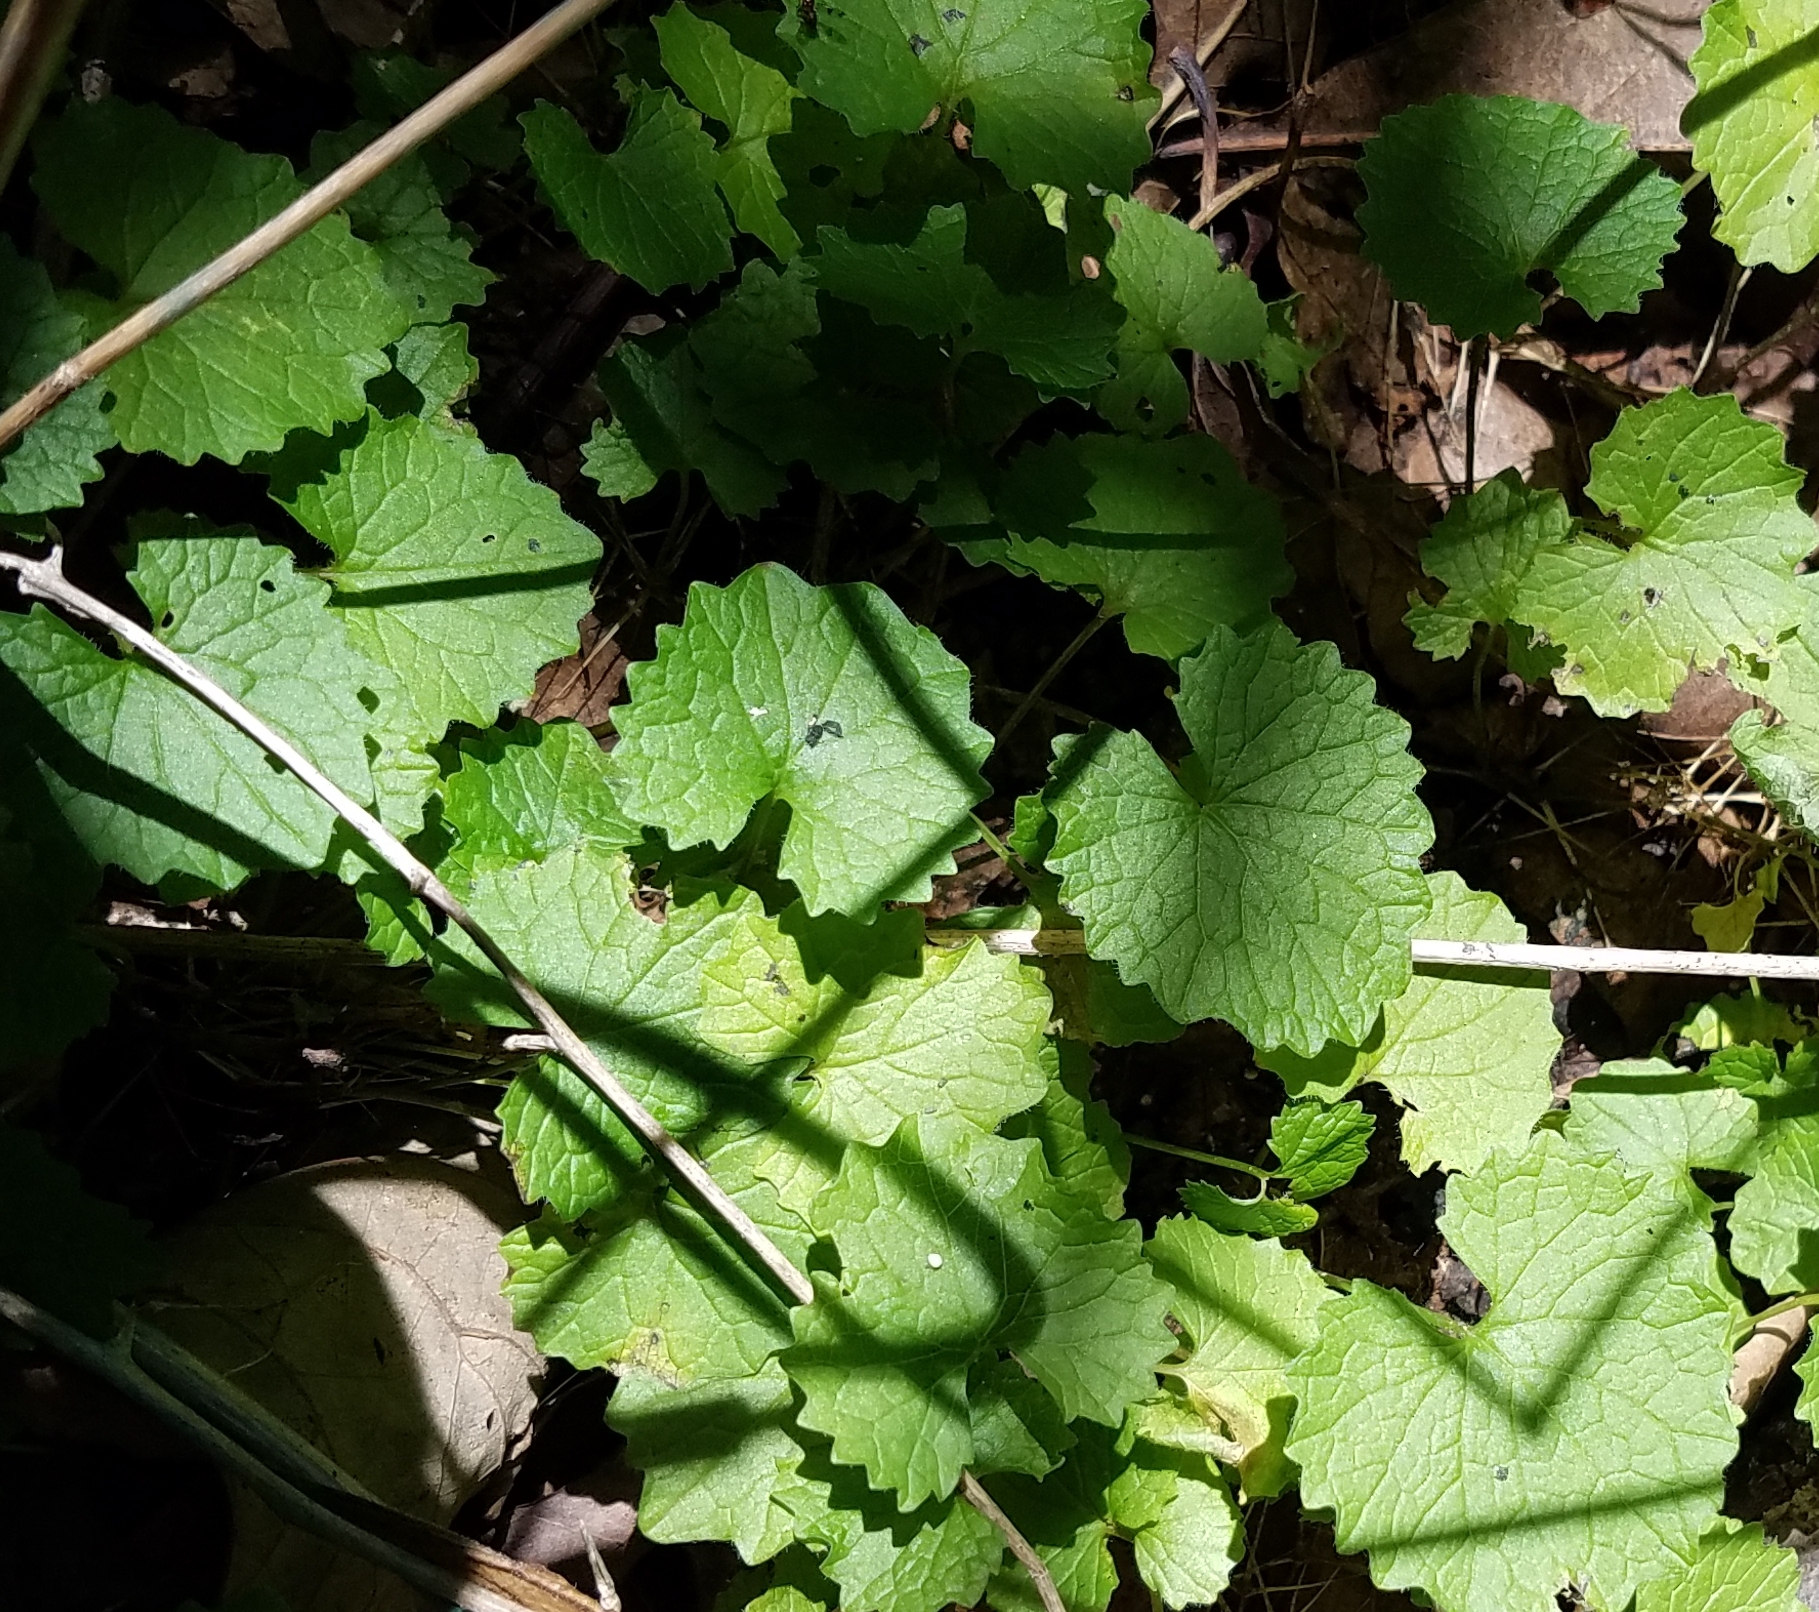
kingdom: Plantae
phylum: Tracheophyta
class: Magnoliopsida
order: Brassicales
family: Brassicaceae
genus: Alliaria
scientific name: Alliaria petiolata
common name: Garlic mustard
